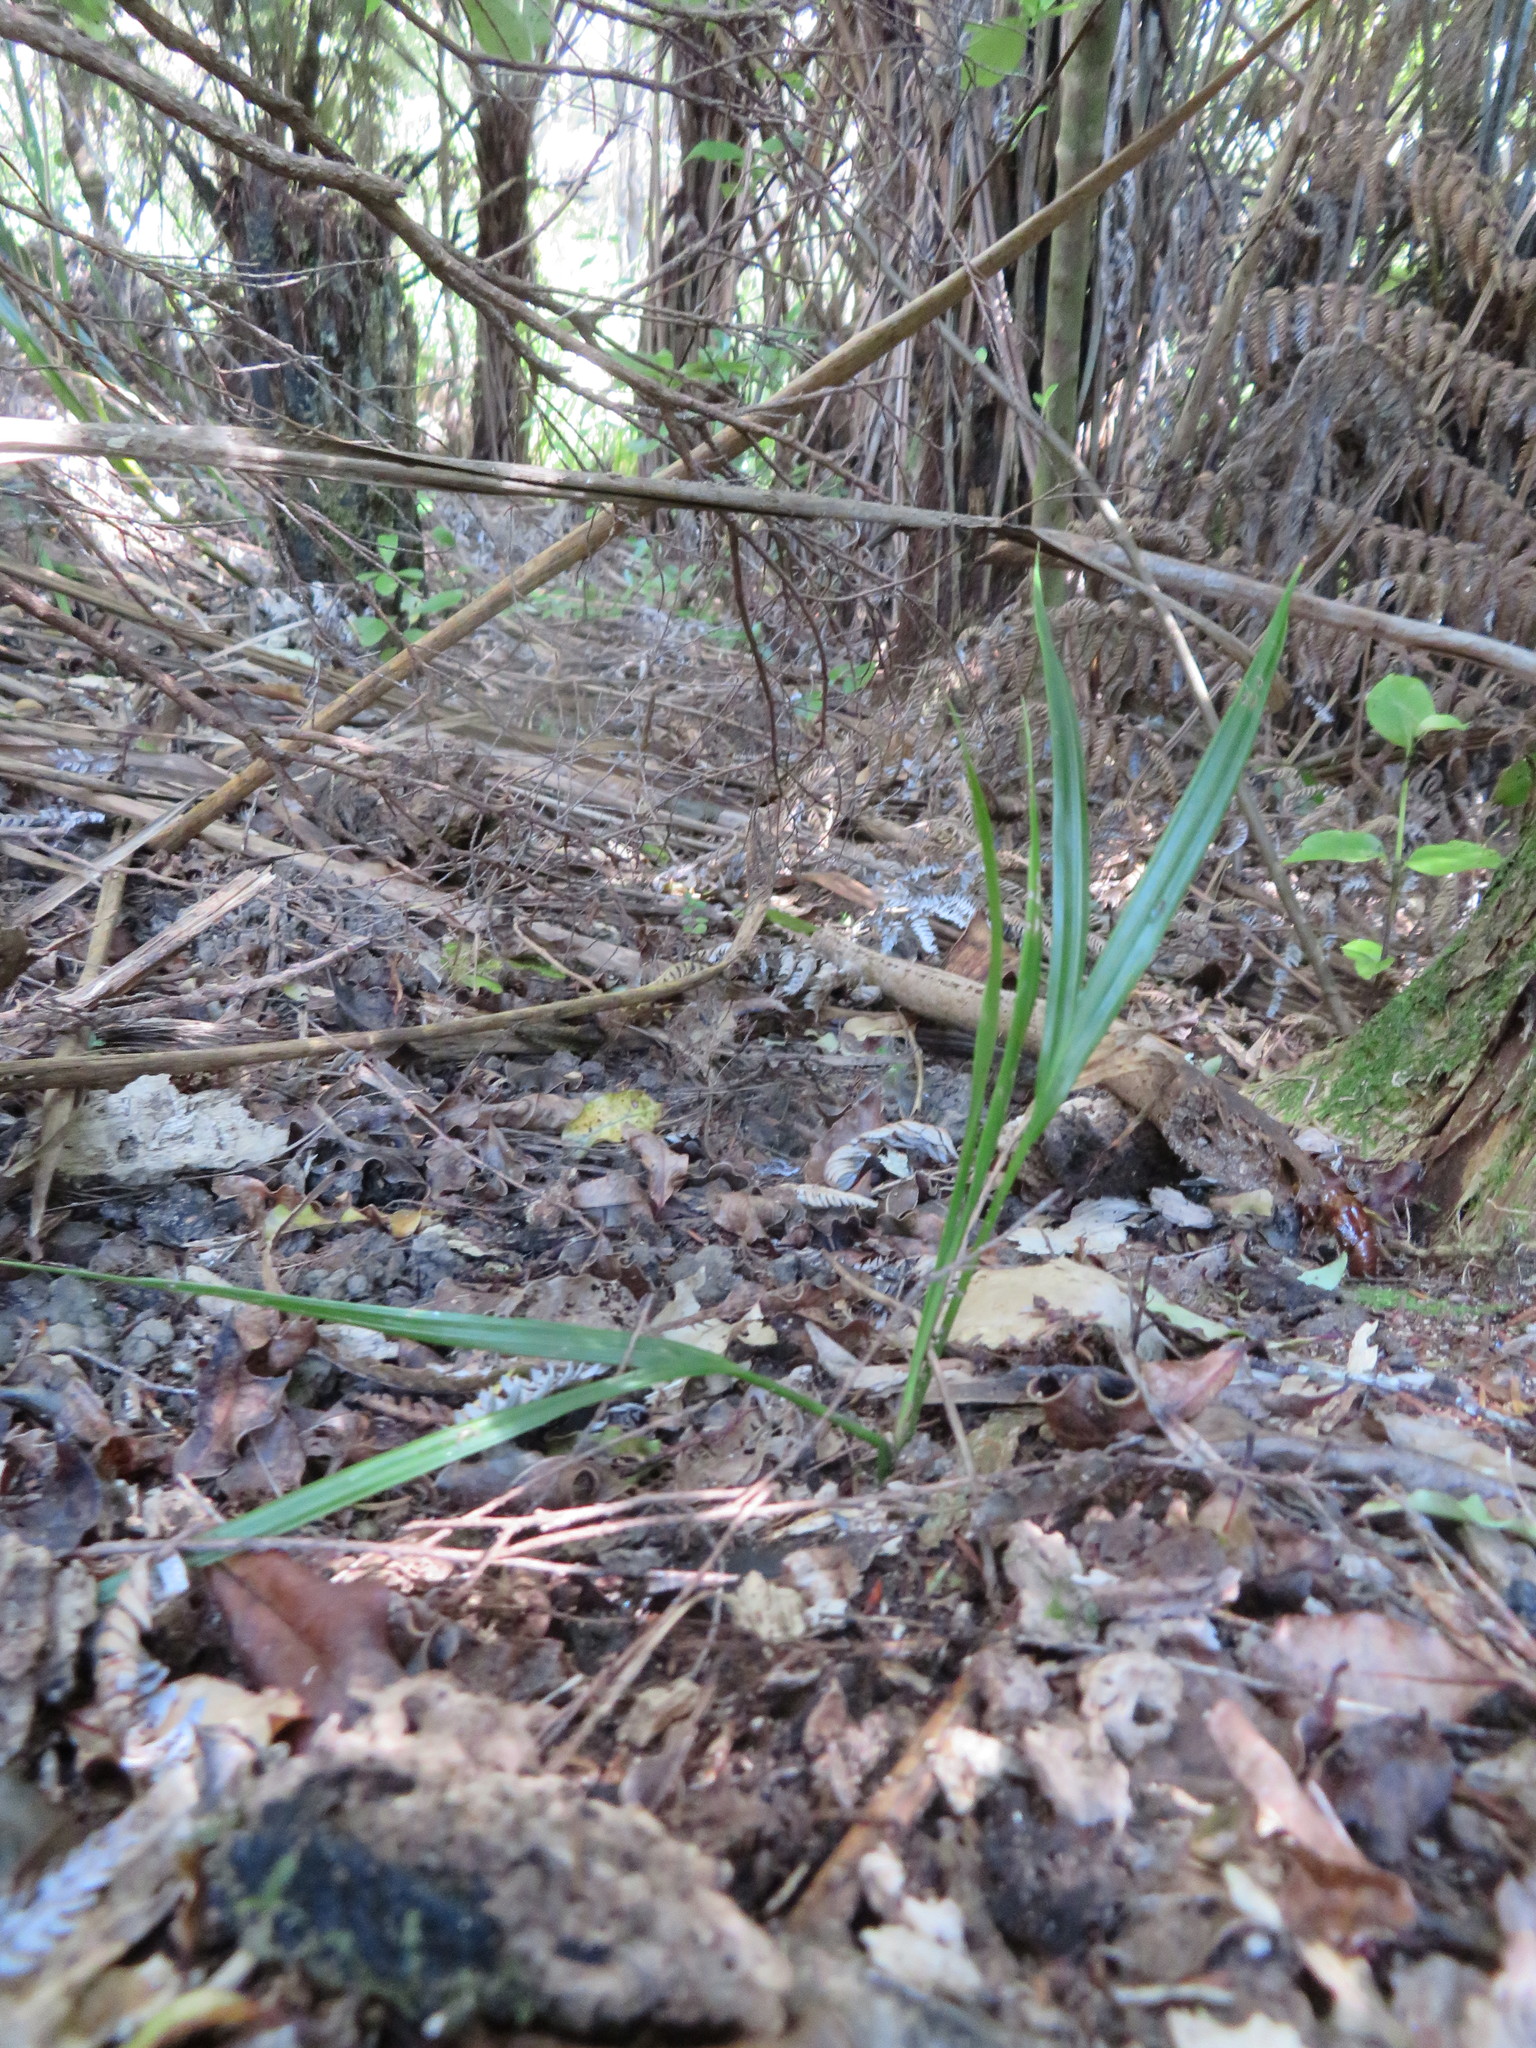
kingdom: Plantae
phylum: Tracheophyta
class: Liliopsida
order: Arecales
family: Arecaceae
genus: Rhopalostylis
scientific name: Rhopalostylis sapida
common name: Feather-duster palm
